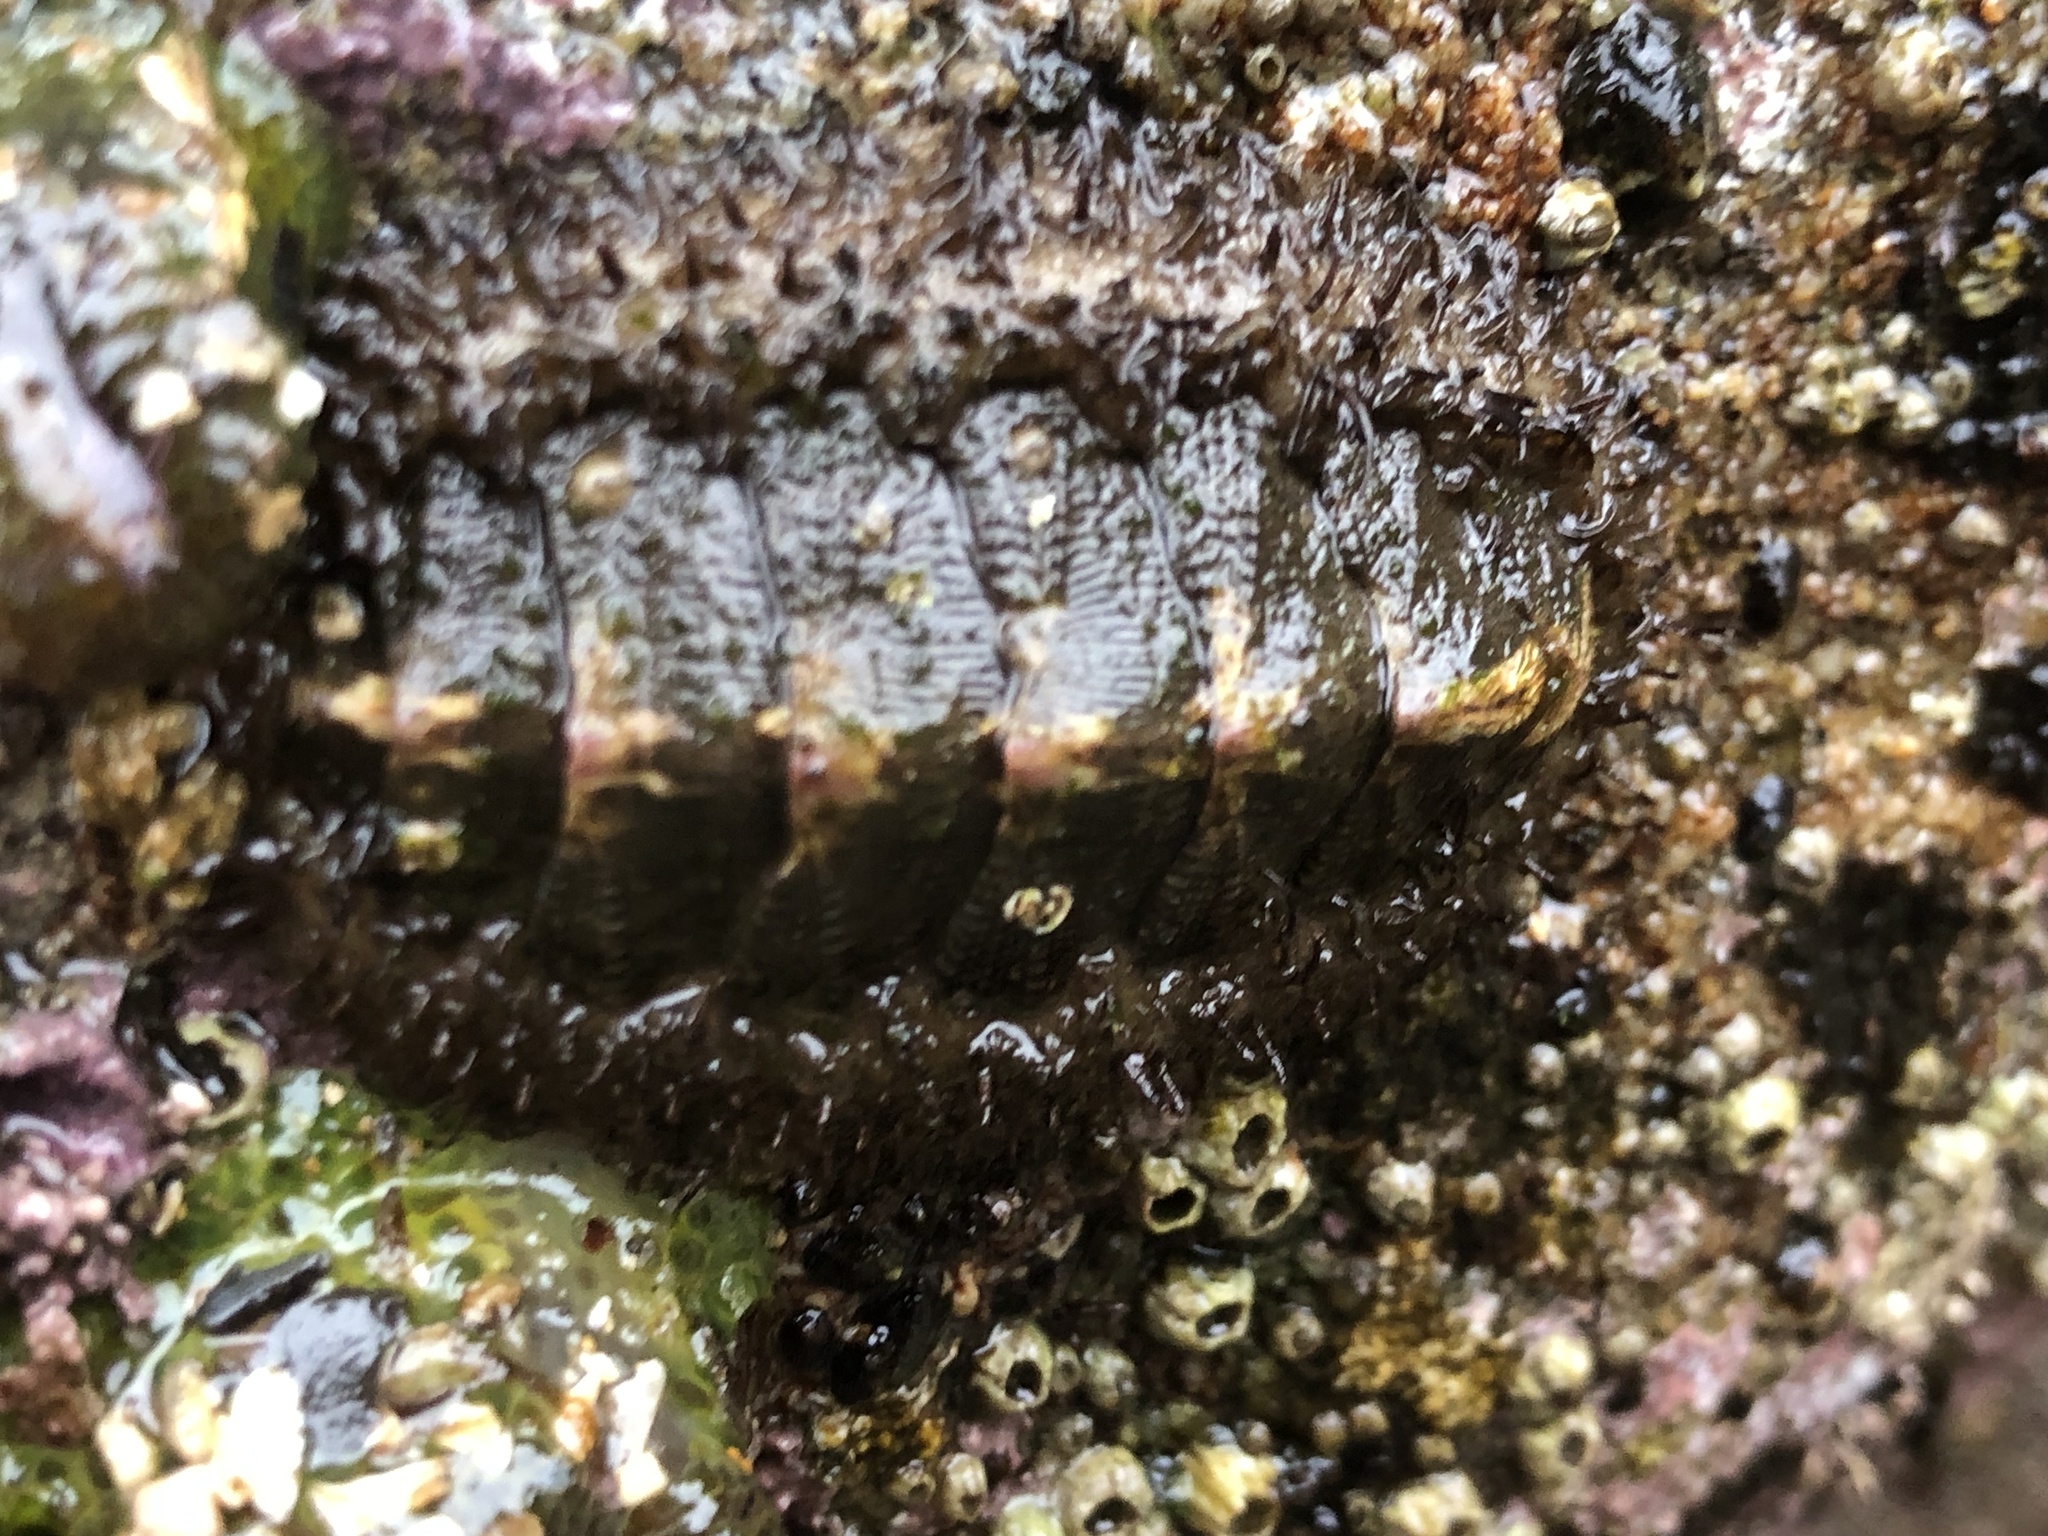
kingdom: Animalia
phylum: Mollusca
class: Polyplacophora
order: Chitonida
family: Mopaliidae
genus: Mopalia
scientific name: Mopalia muscosa
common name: Mossy chiton
